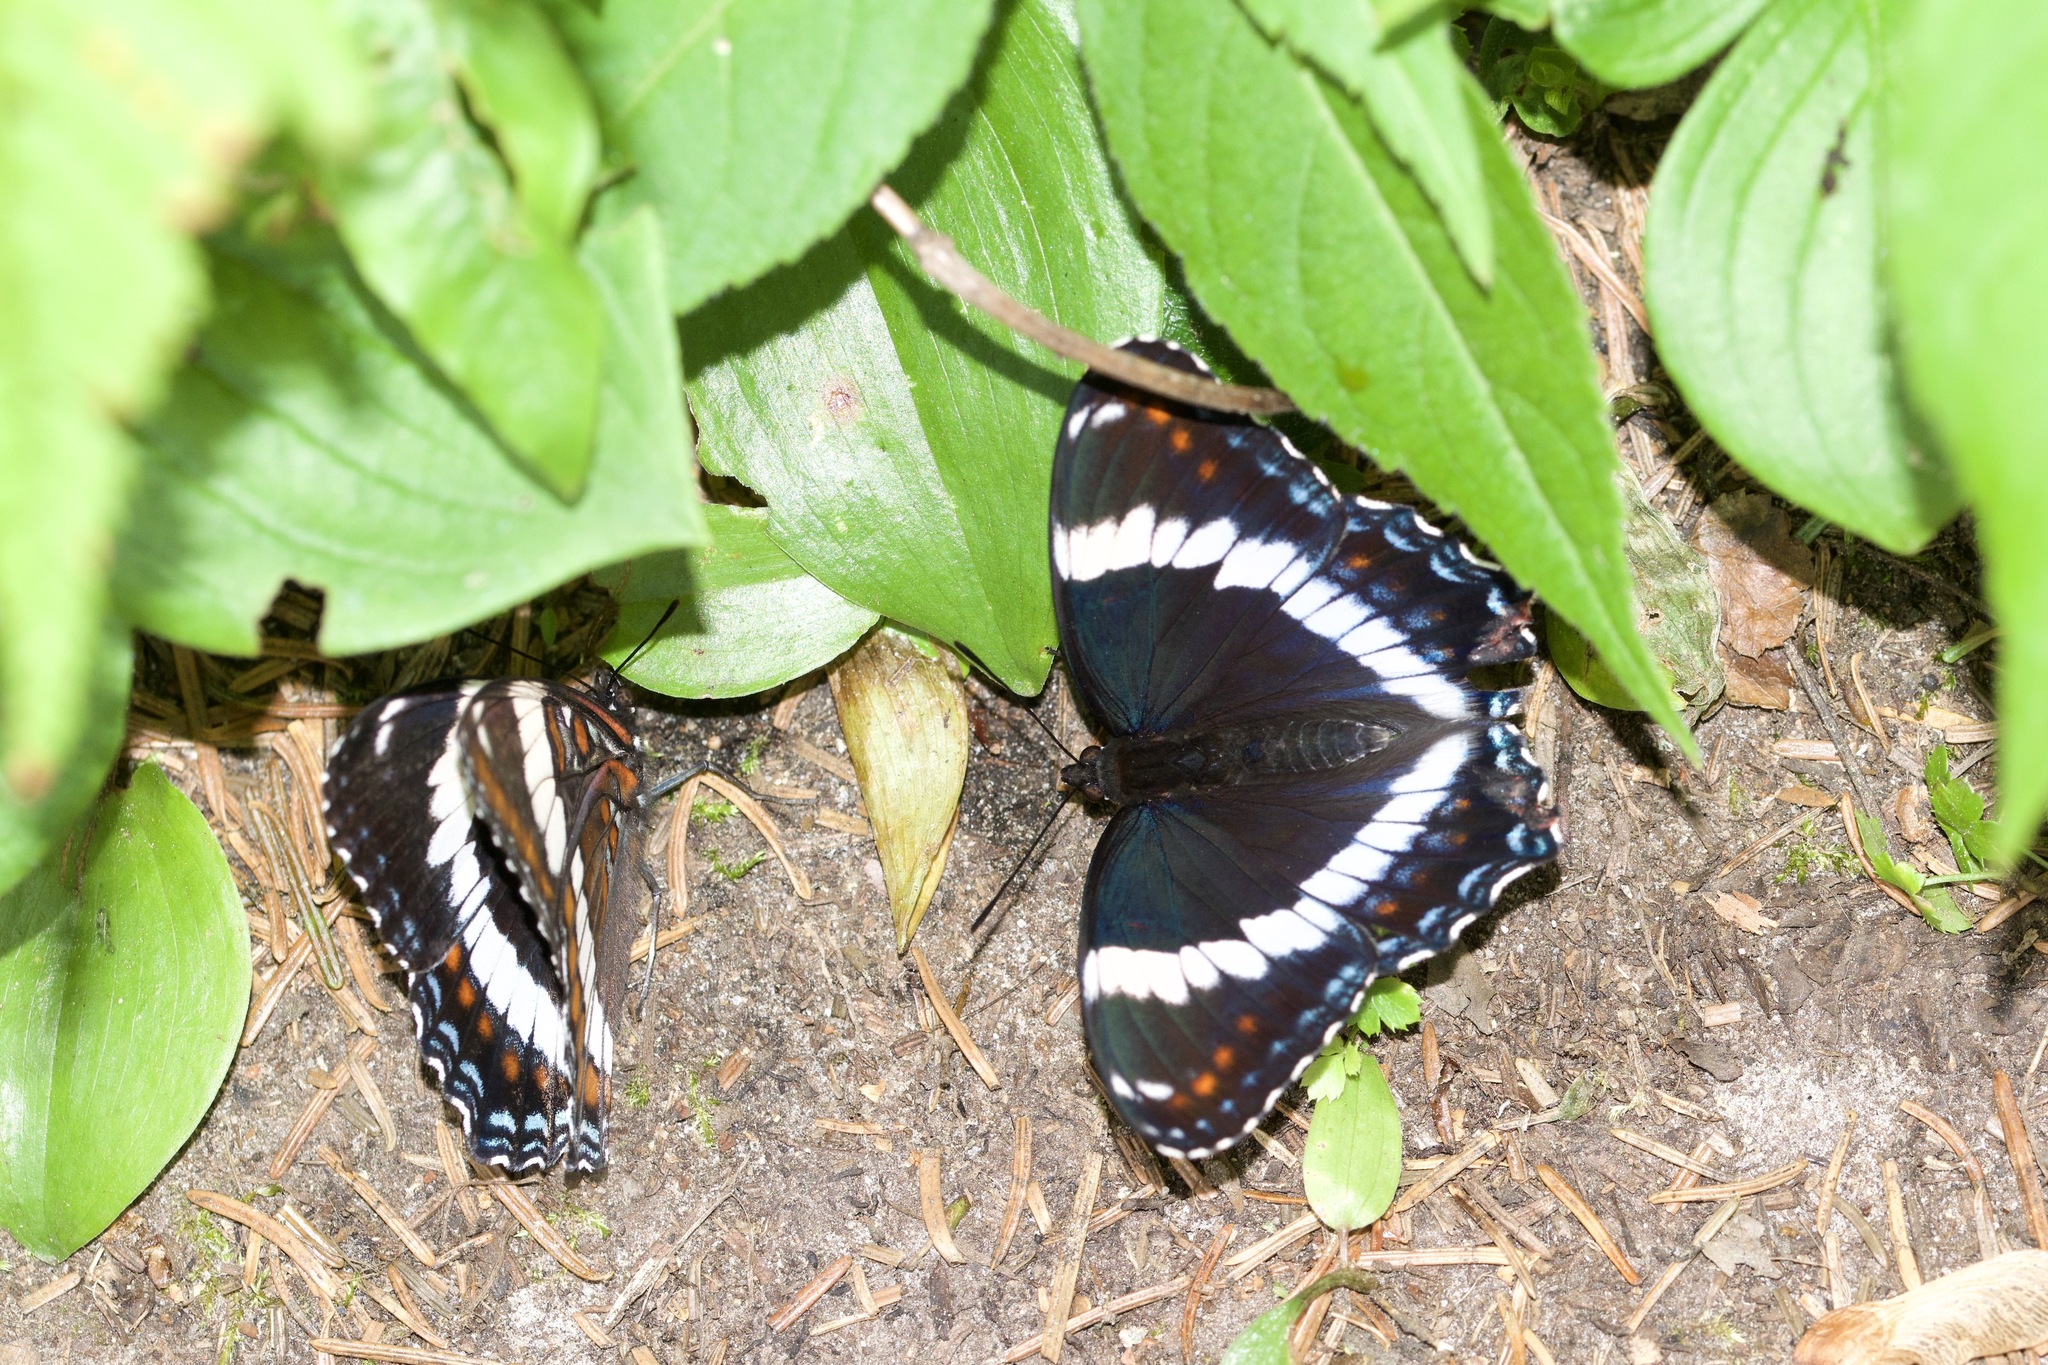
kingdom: Animalia
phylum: Arthropoda
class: Insecta
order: Lepidoptera
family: Nymphalidae
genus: Limenitis
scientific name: Limenitis arthemis
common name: Red-spotted admiral
